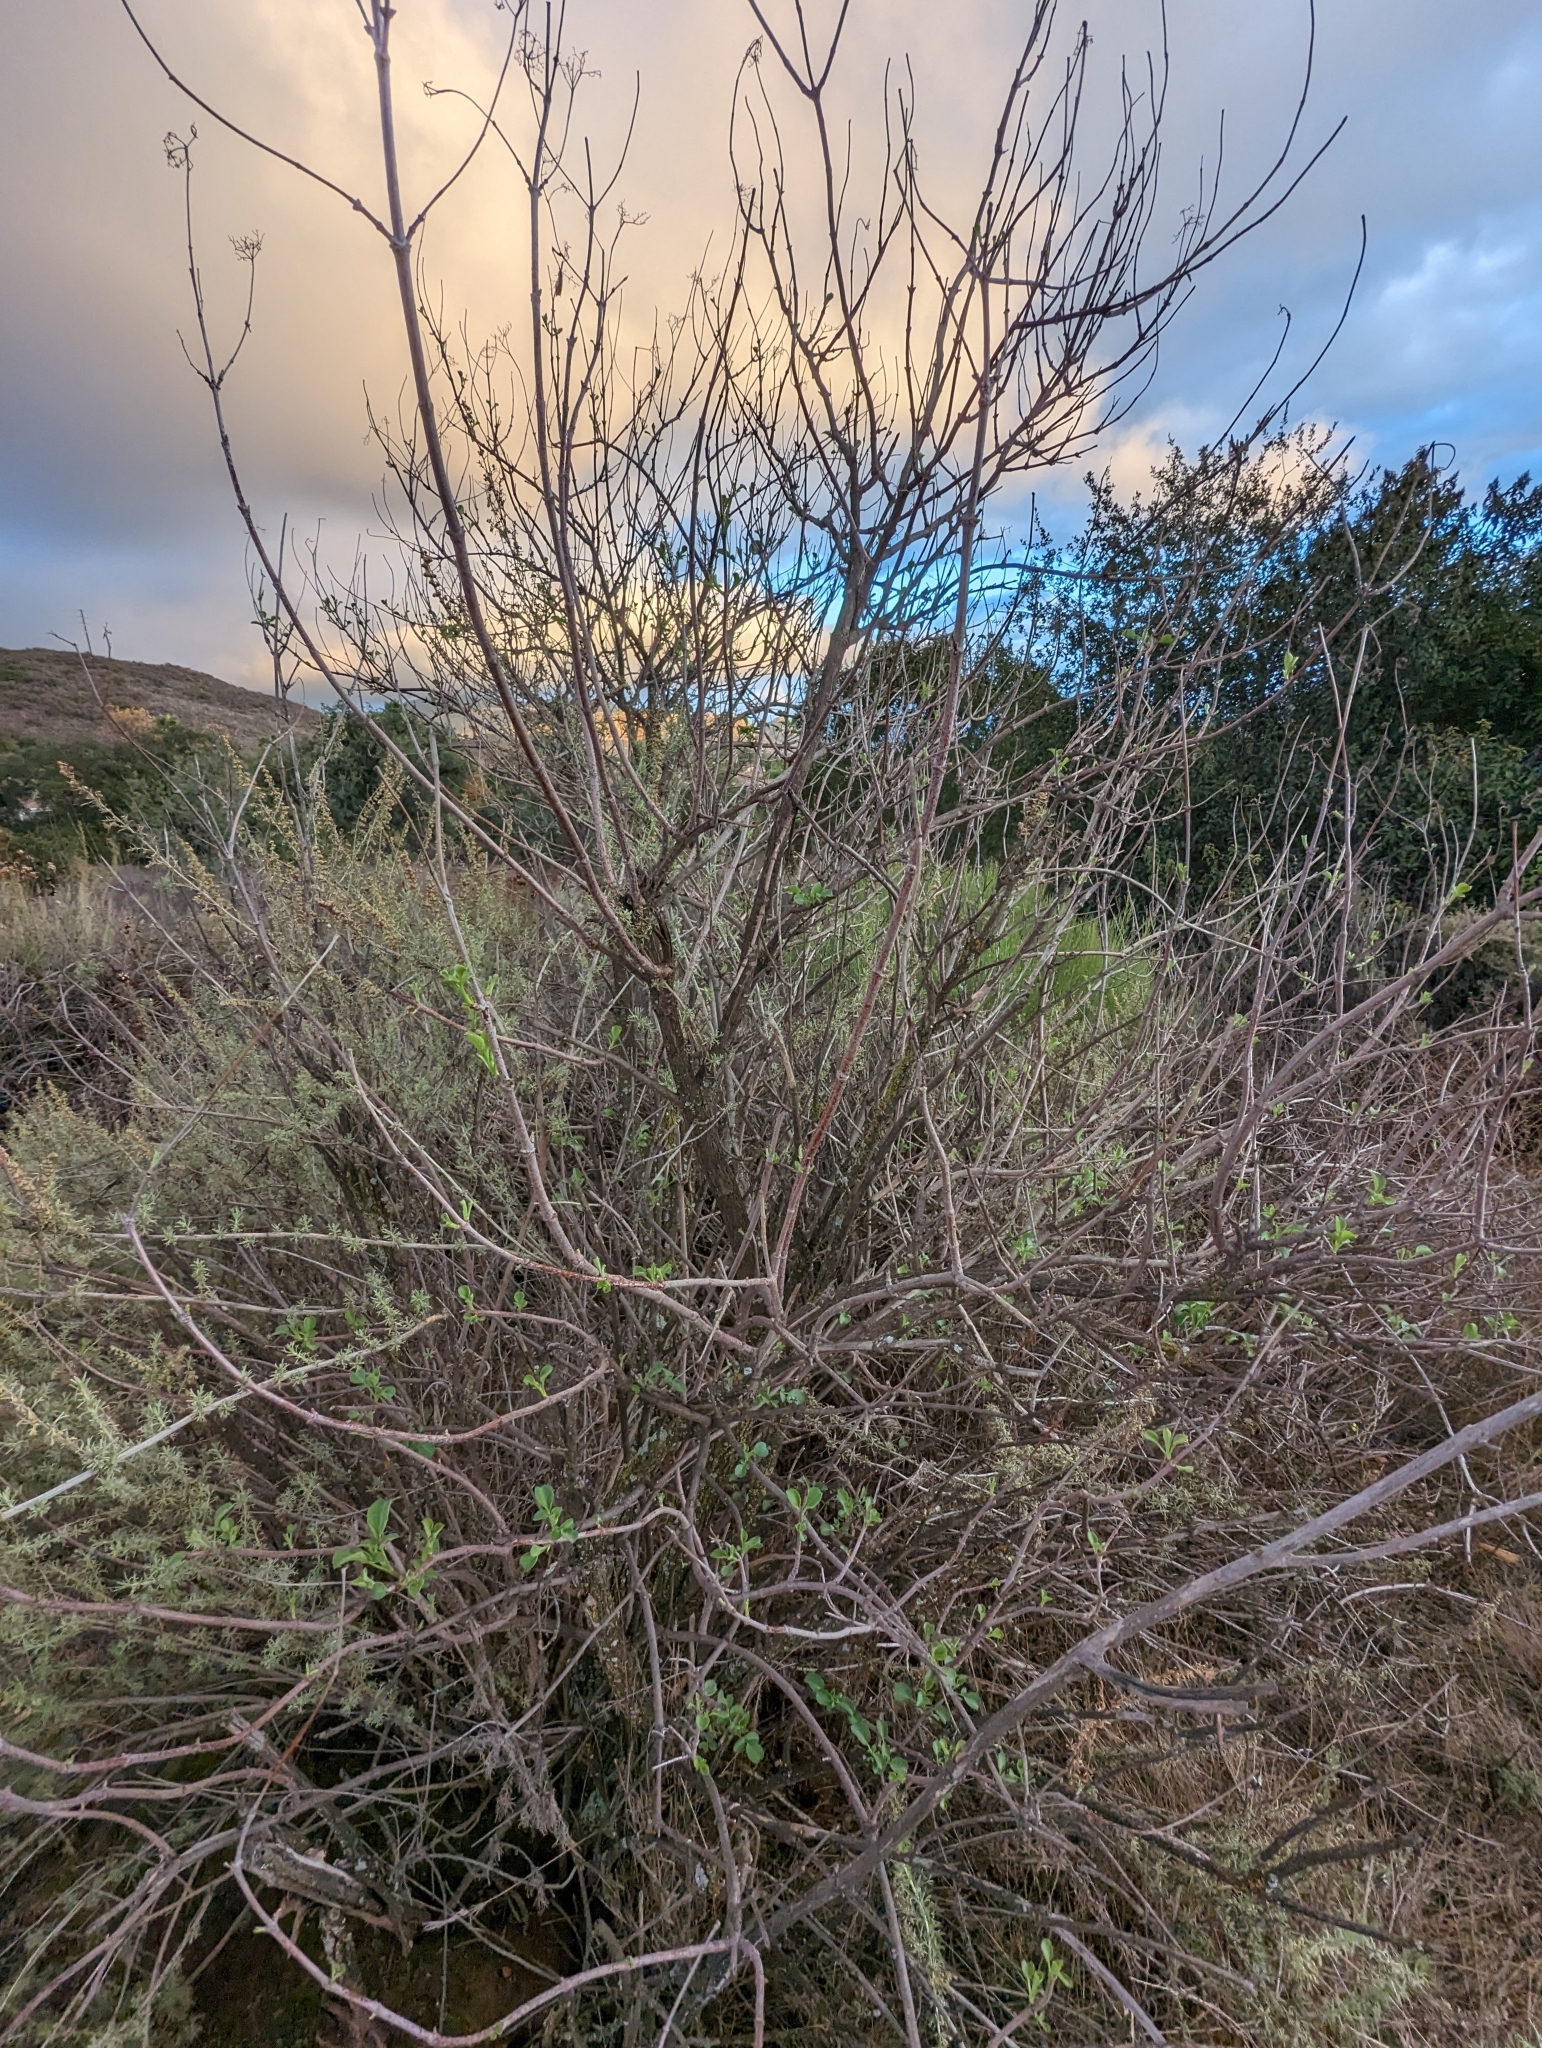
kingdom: Plantae
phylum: Tracheophyta
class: Magnoliopsida
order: Dipsacales
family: Viburnaceae
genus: Sambucus
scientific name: Sambucus cerulea
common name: Blue elder
